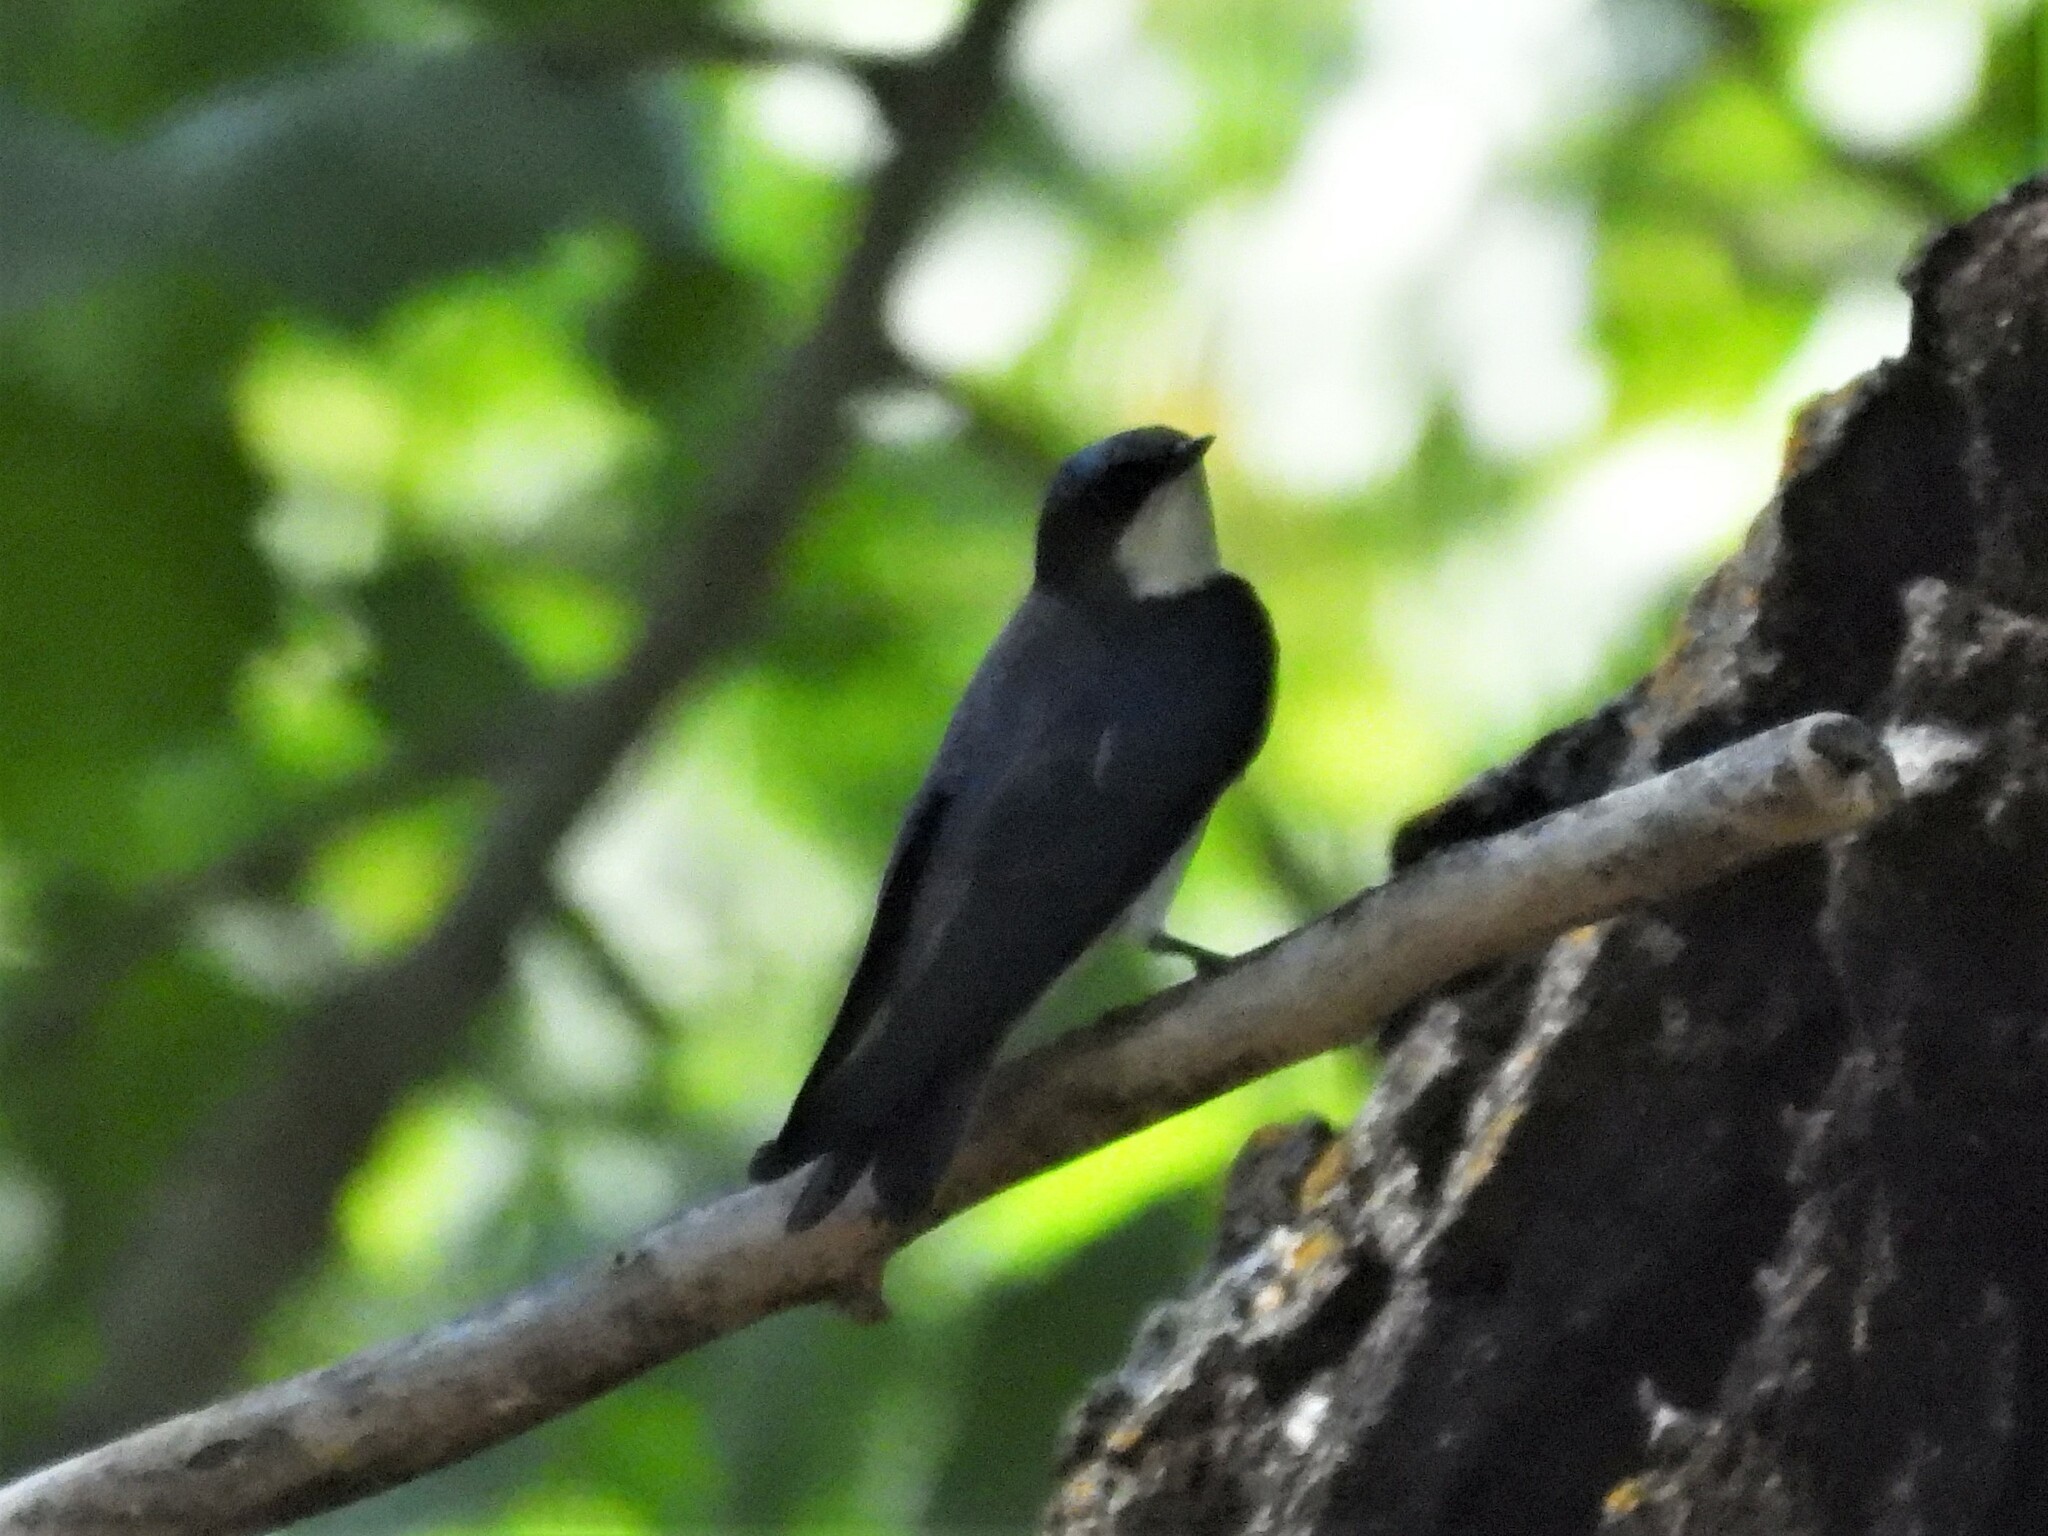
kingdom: Animalia
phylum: Chordata
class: Aves
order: Passeriformes
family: Hirundinidae
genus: Tachycineta
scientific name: Tachycineta bicolor
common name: Tree swallow
